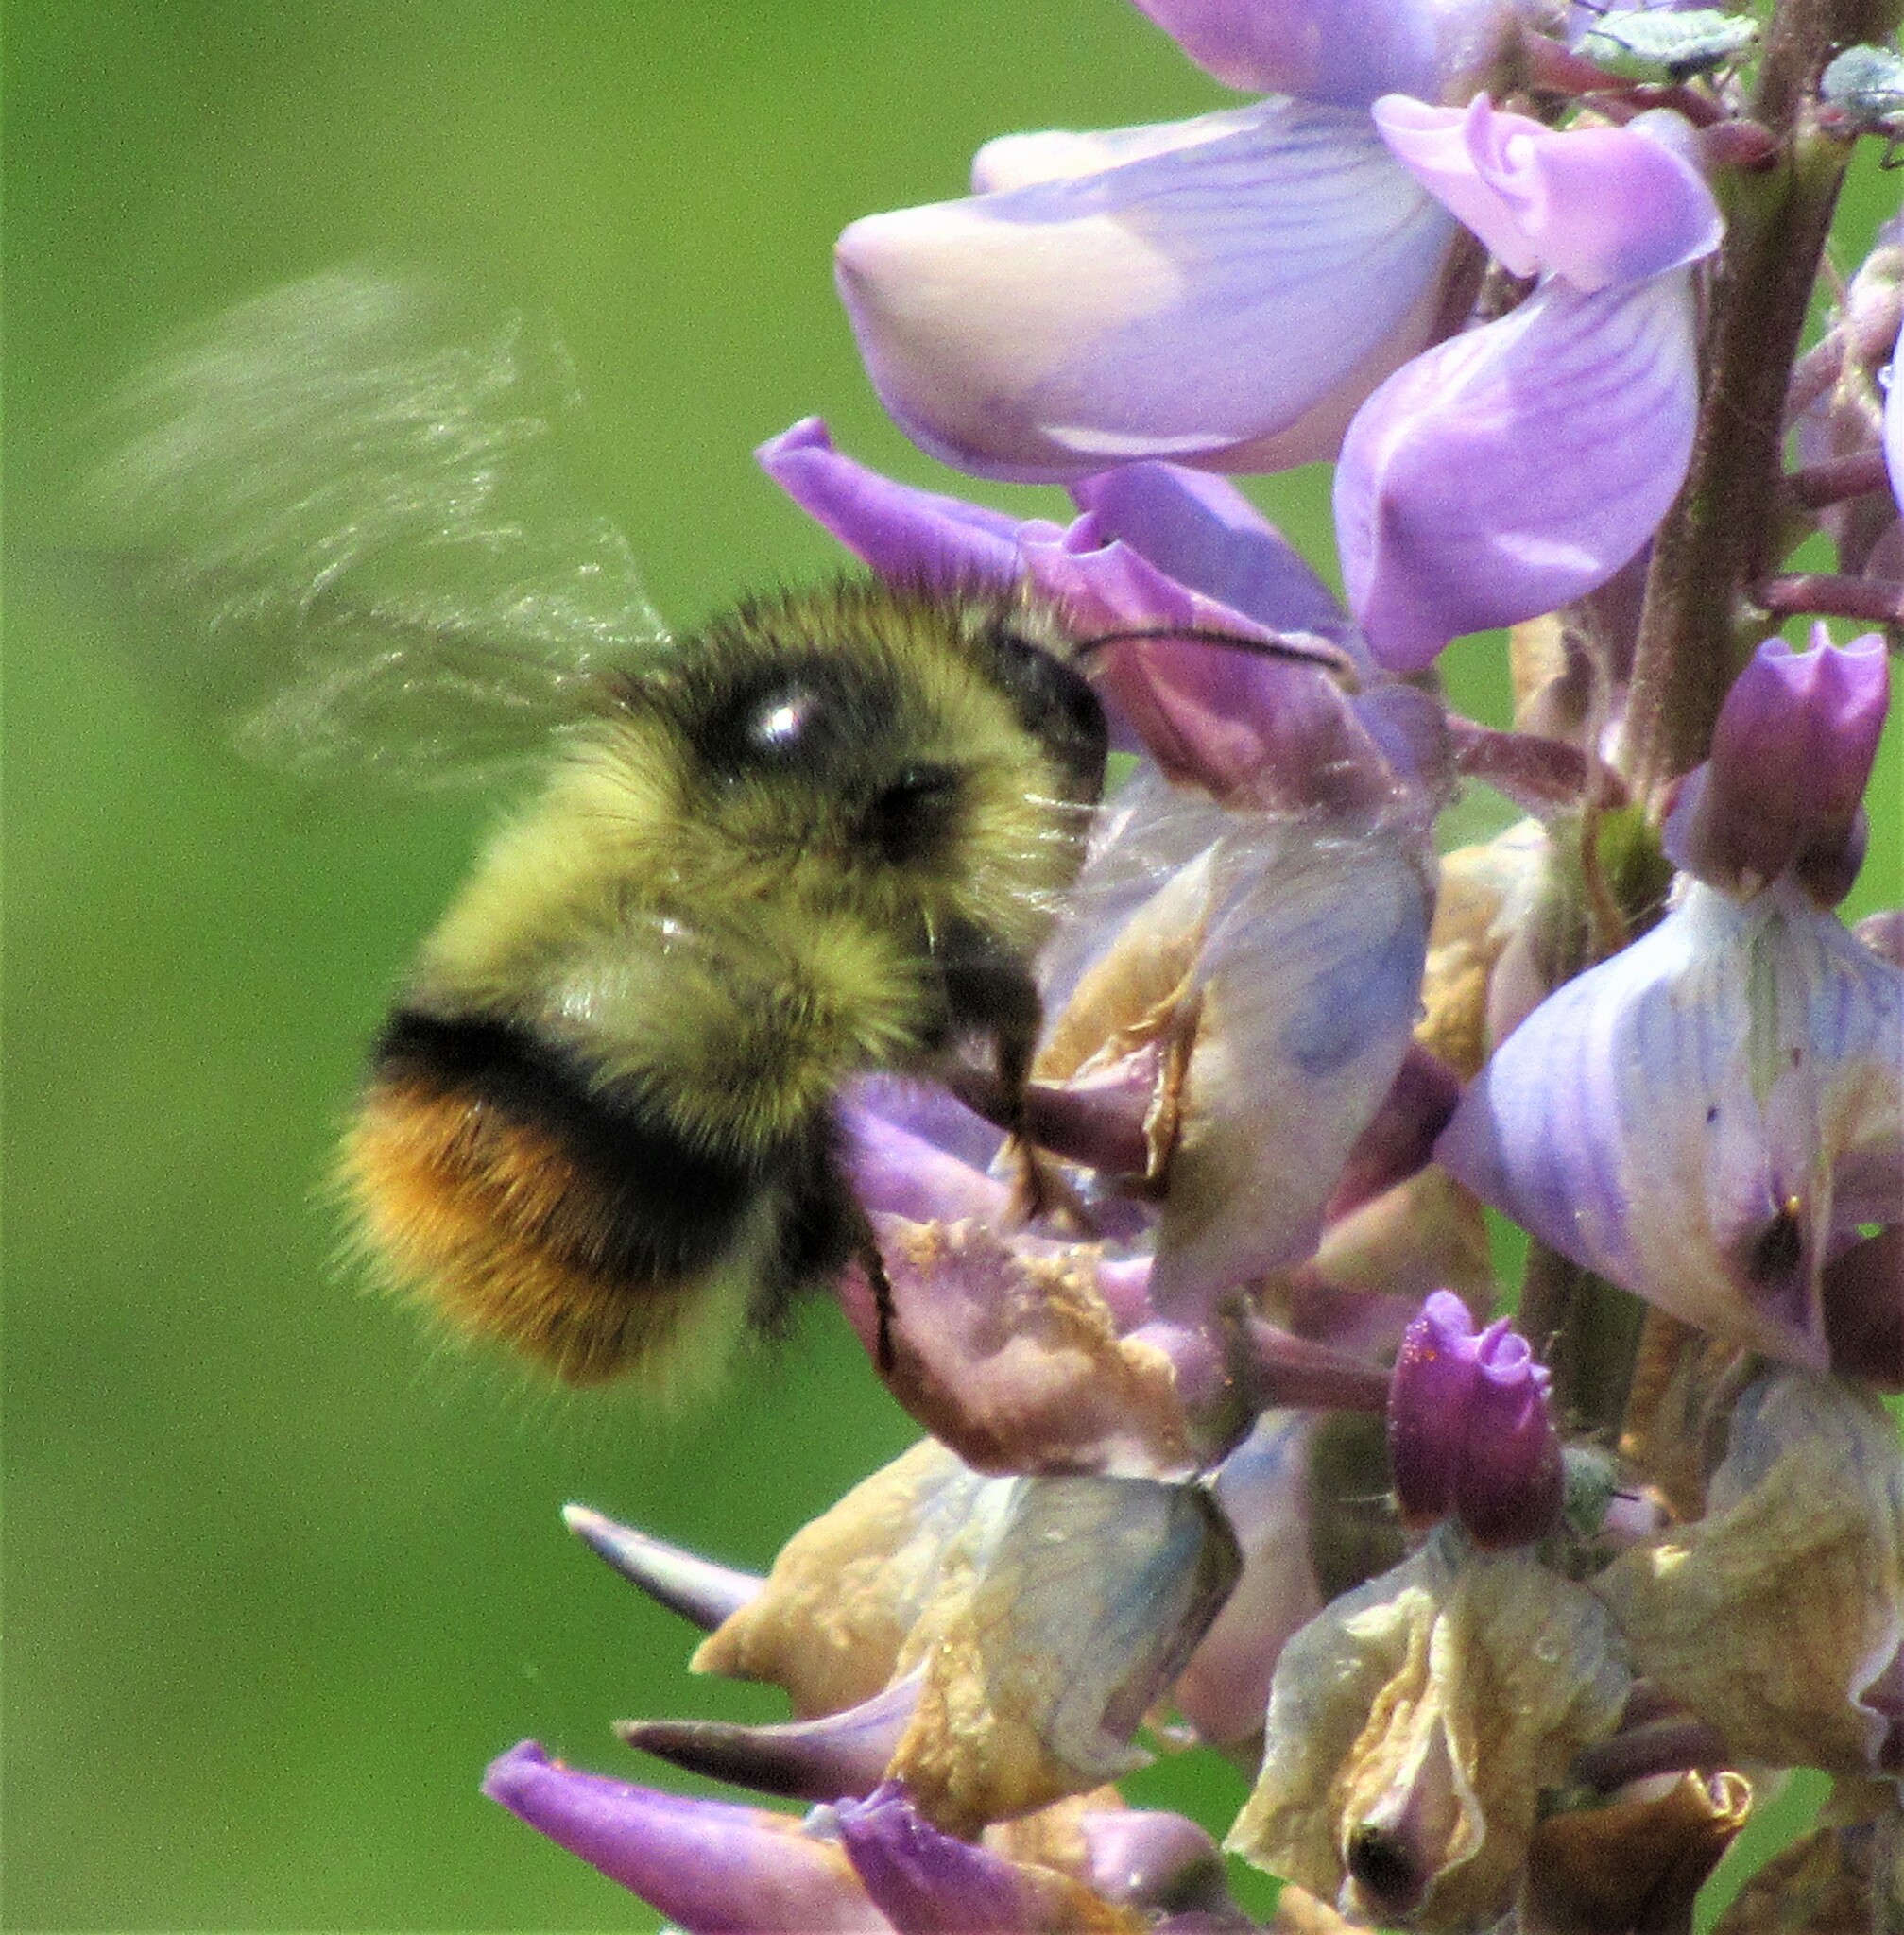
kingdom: Animalia
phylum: Arthropoda
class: Insecta
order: Hymenoptera
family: Apidae
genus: Bombus
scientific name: Bombus mixtus
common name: Fuzzy-horned bumble bee
